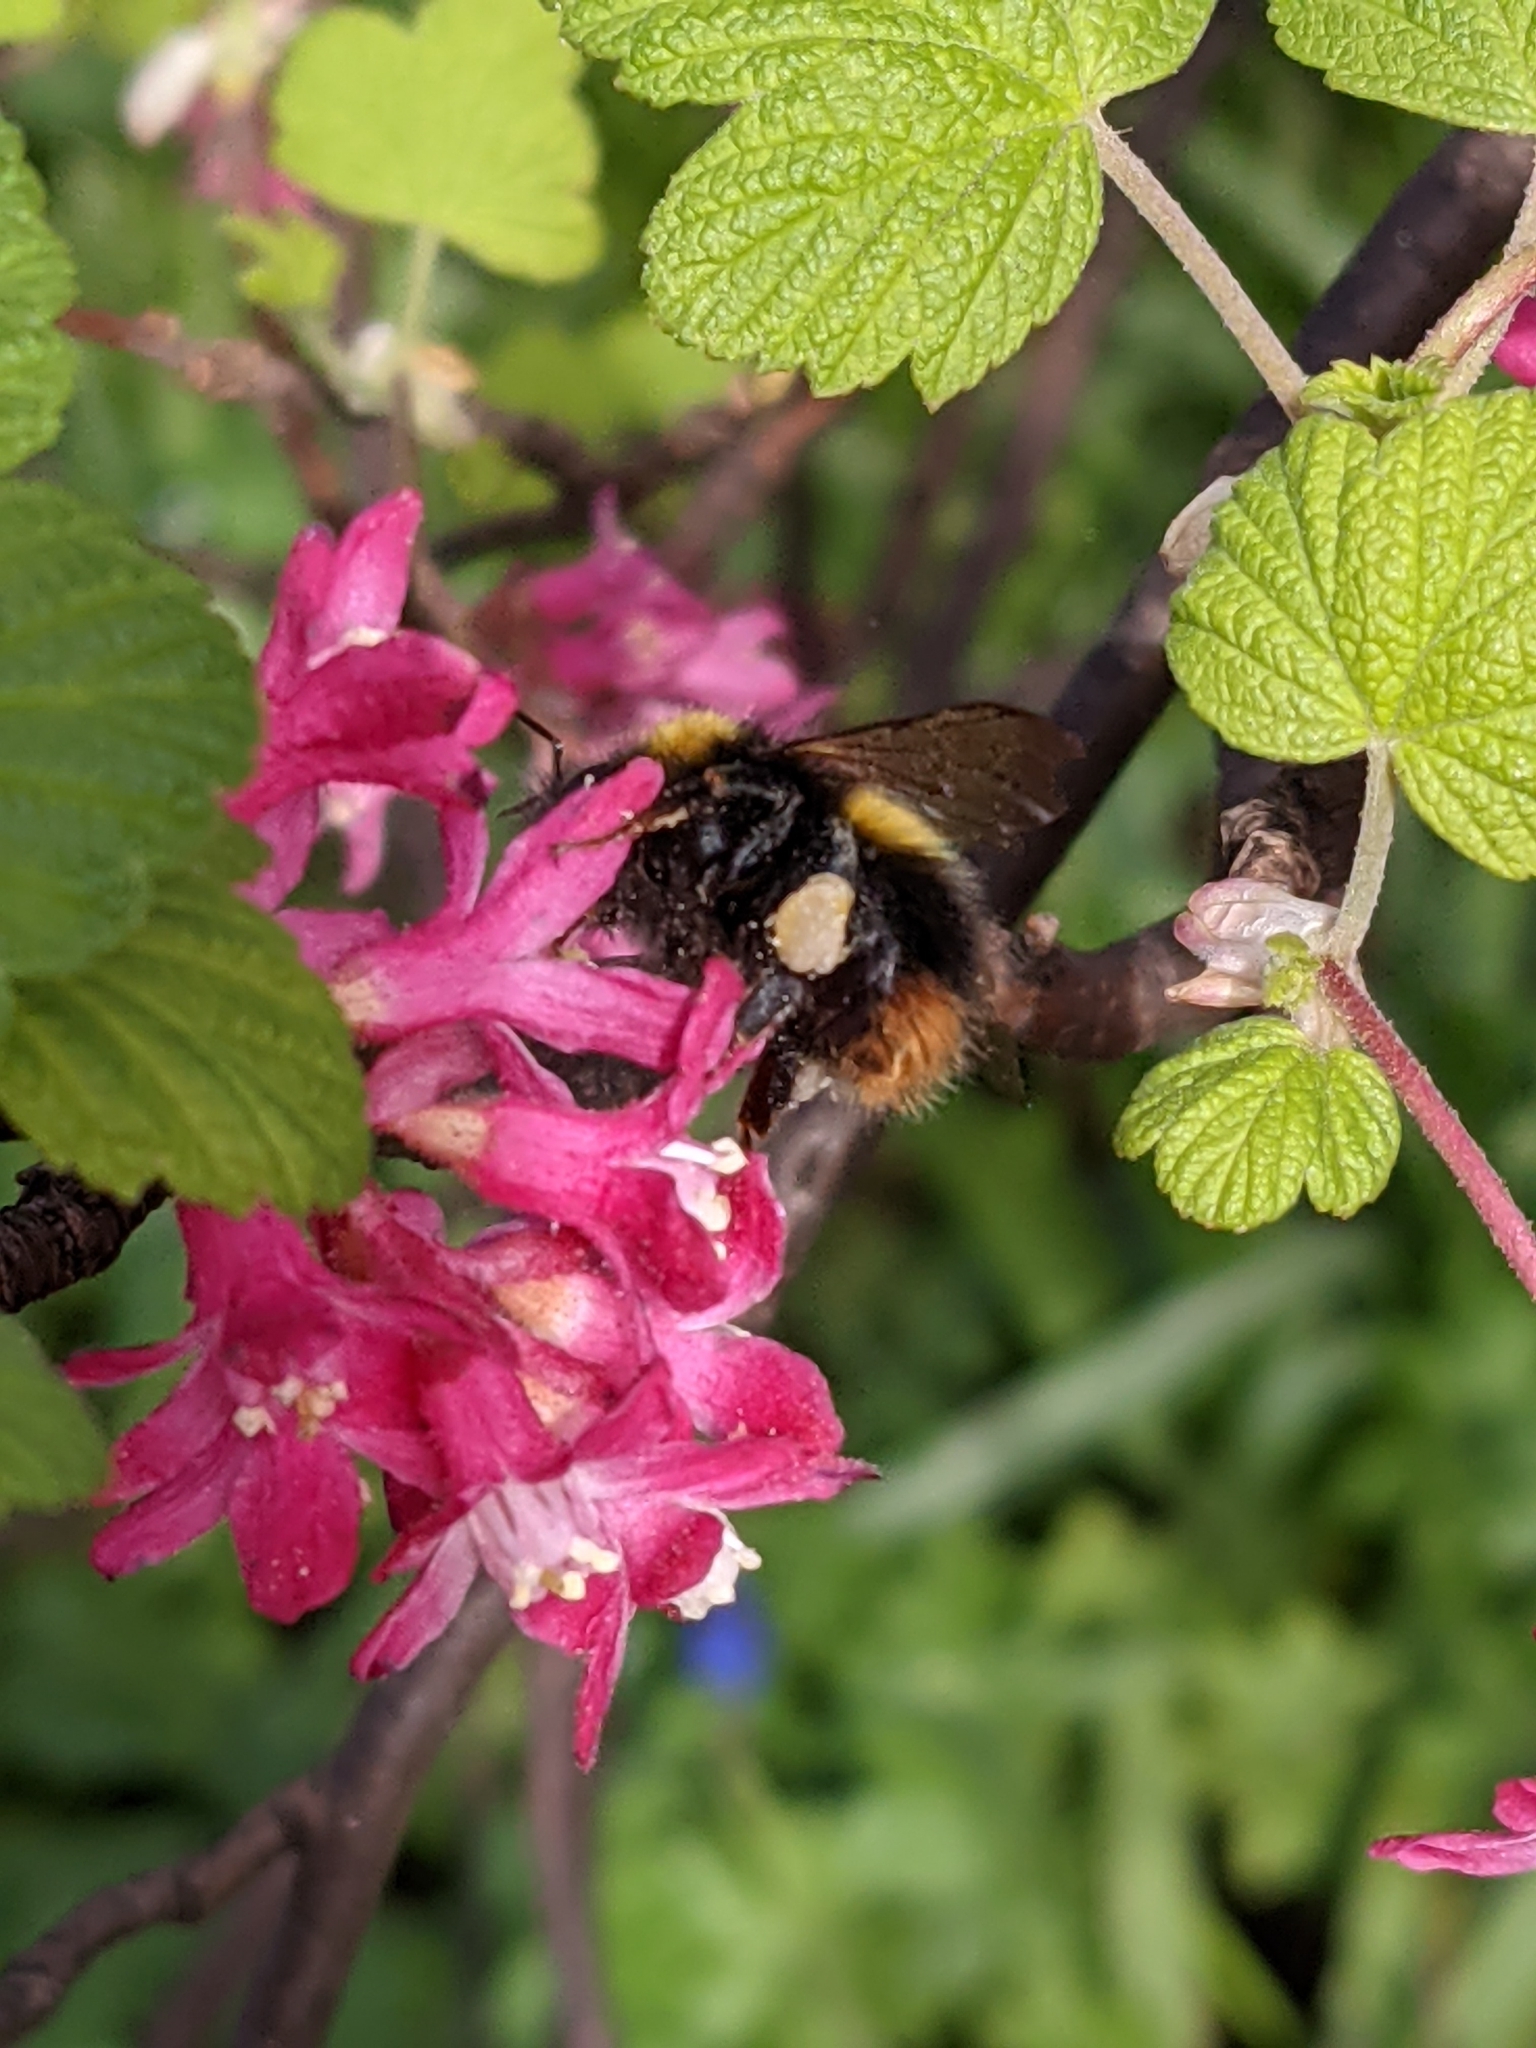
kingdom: Animalia
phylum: Arthropoda
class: Insecta
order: Hymenoptera
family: Apidae
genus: Bombus
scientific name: Bombus pratorum
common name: Early humble-bee
